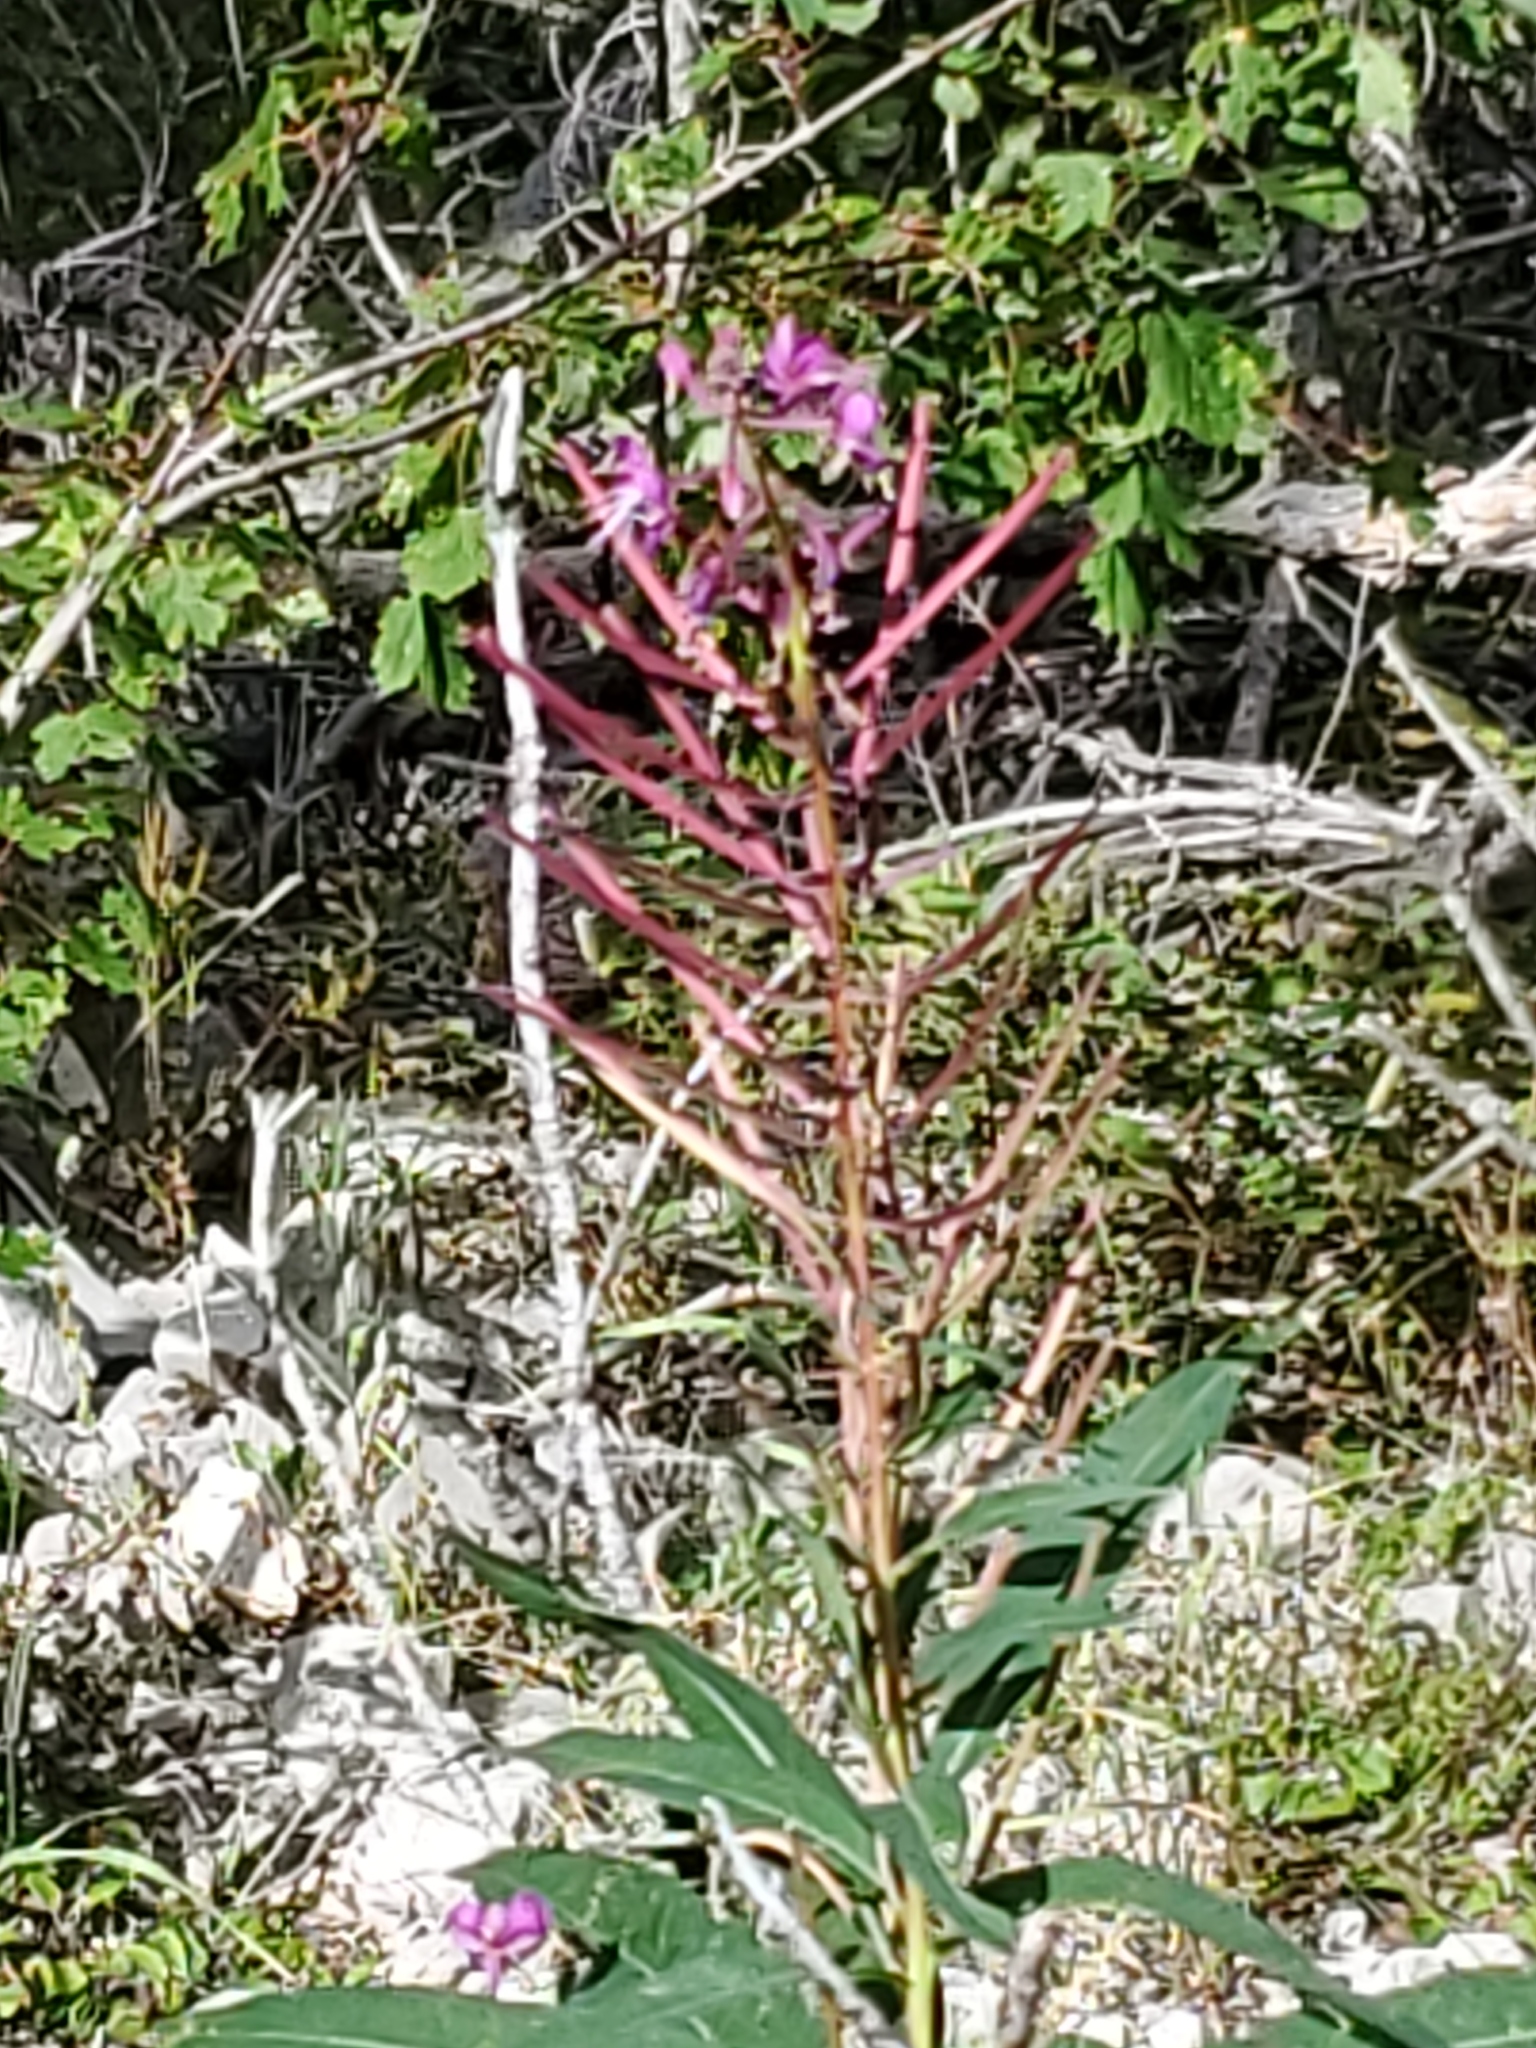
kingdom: Plantae
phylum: Tracheophyta
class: Magnoliopsida
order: Myrtales
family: Onagraceae
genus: Chamaenerion
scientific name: Chamaenerion angustifolium
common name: Fireweed
